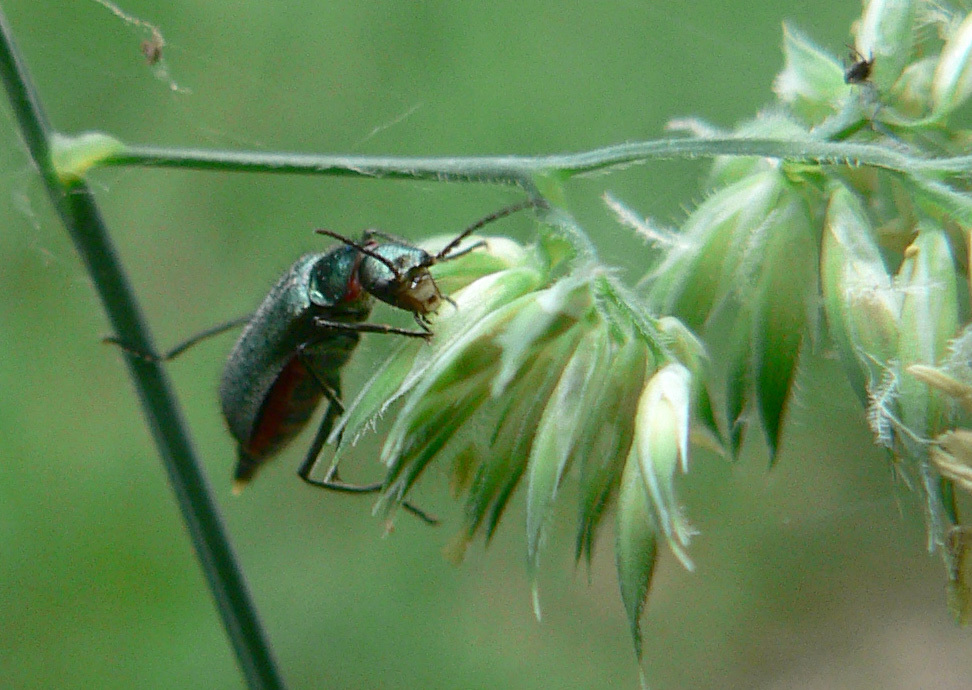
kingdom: Animalia
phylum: Arthropoda
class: Insecta
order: Coleoptera
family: Melyridae
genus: Malachius
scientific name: Malachius bipustulatus
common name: Malachite beetle
